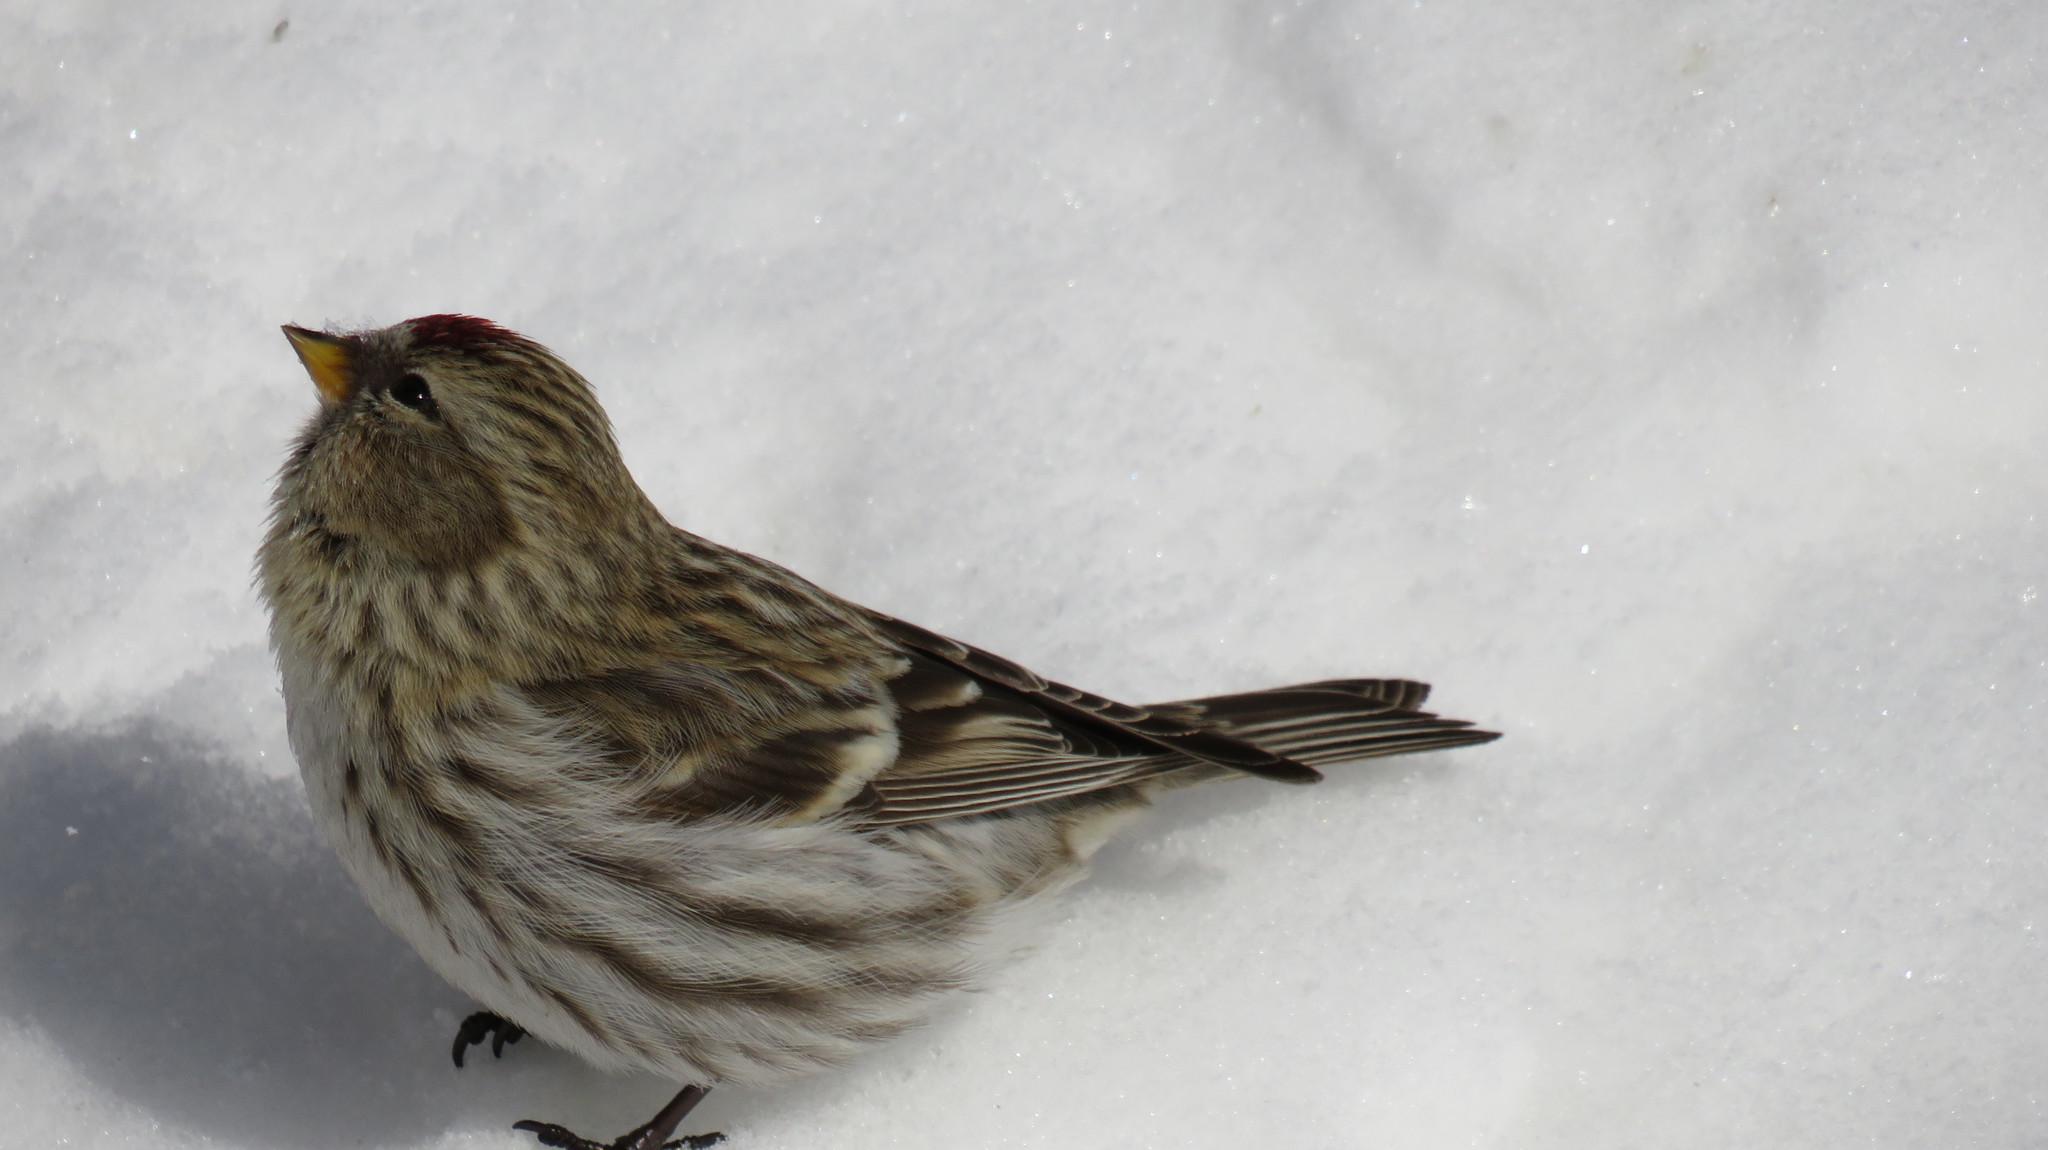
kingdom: Animalia
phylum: Chordata
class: Aves
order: Passeriformes
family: Fringillidae
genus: Acanthis
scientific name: Acanthis flammea
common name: Common redpoll
